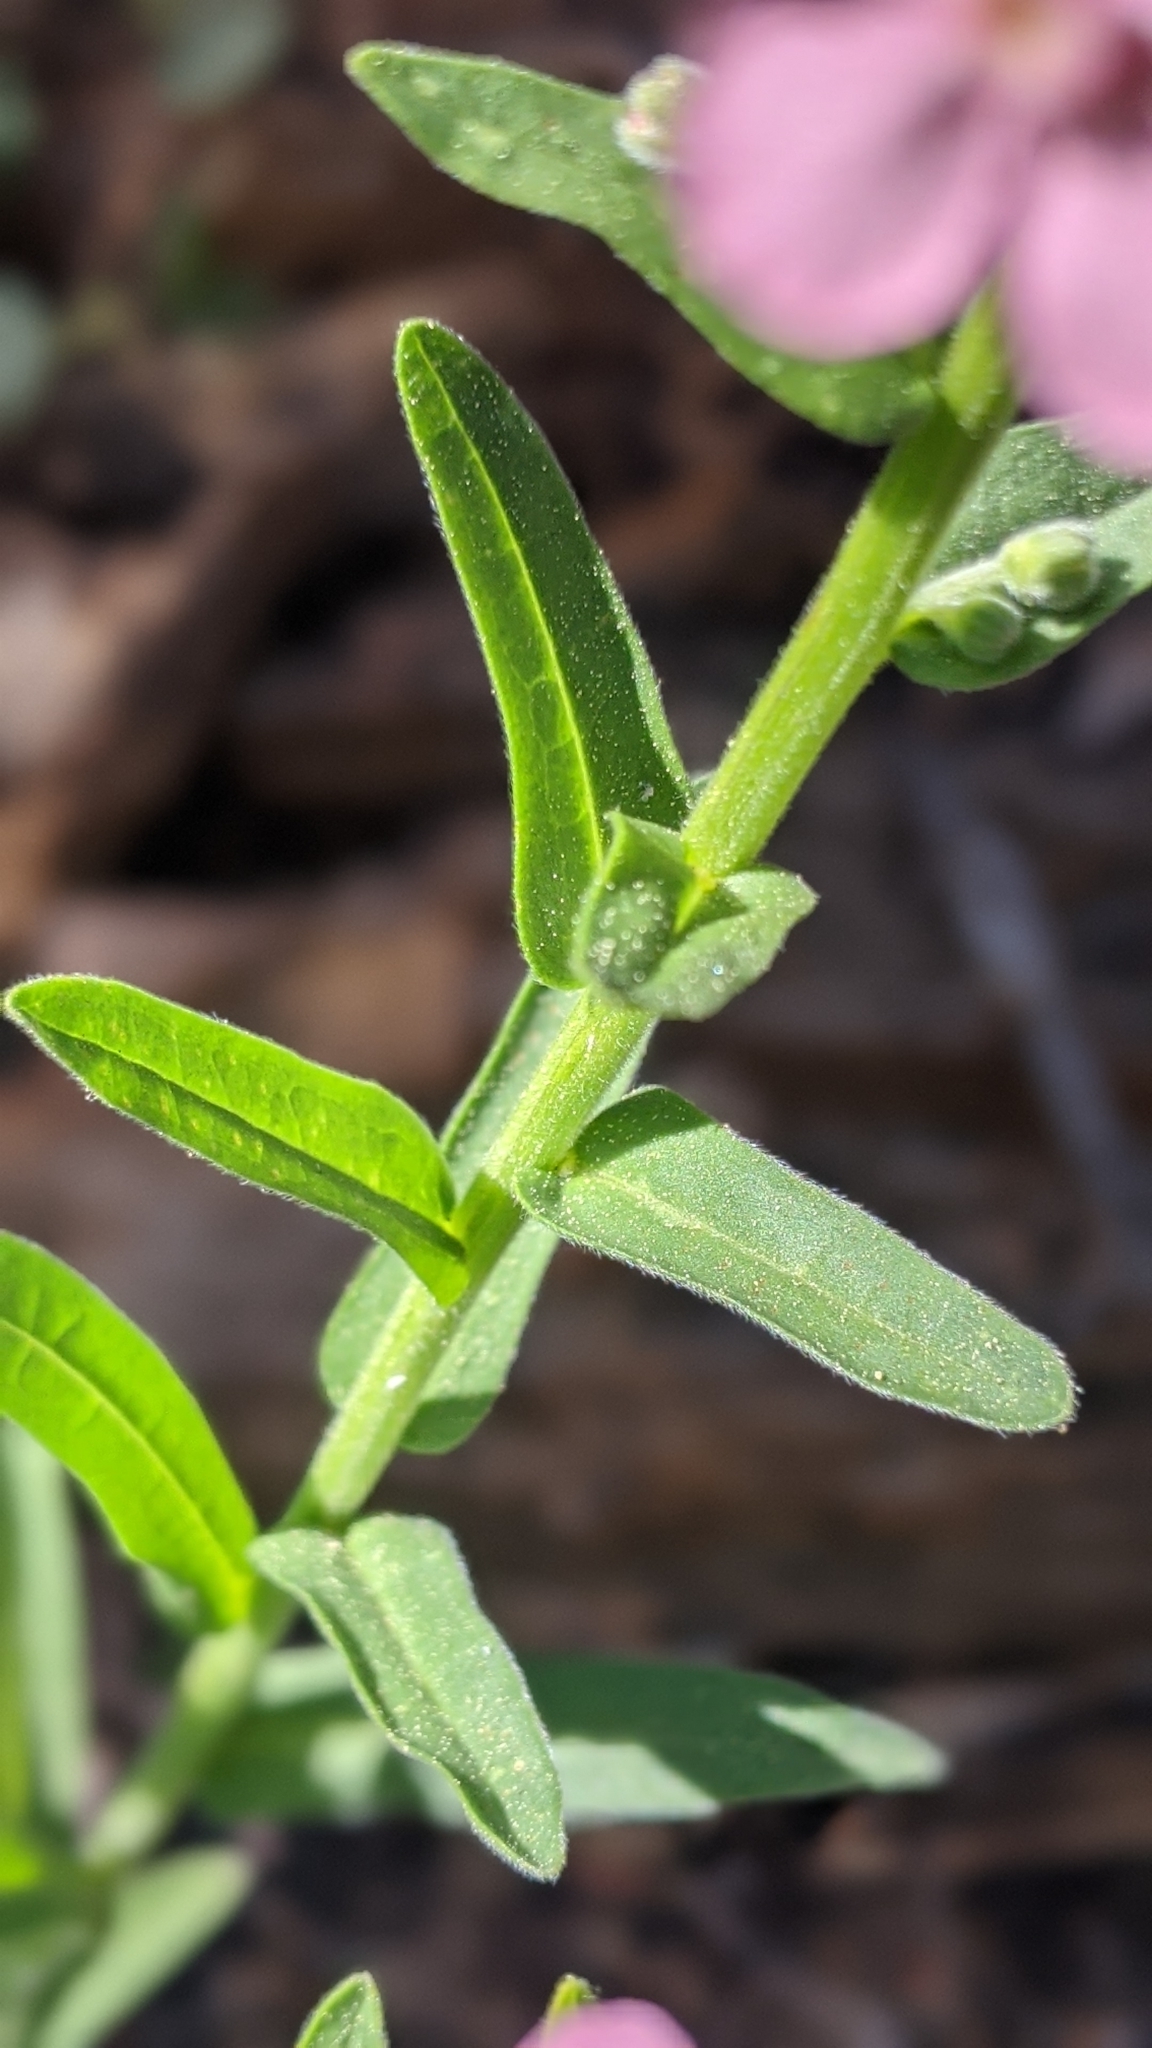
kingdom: Plantae
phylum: Tracheophyta
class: Magnoliopsida
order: Boraginales
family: Boraginaceae
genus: Hackelia
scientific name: Hackelia mundula
